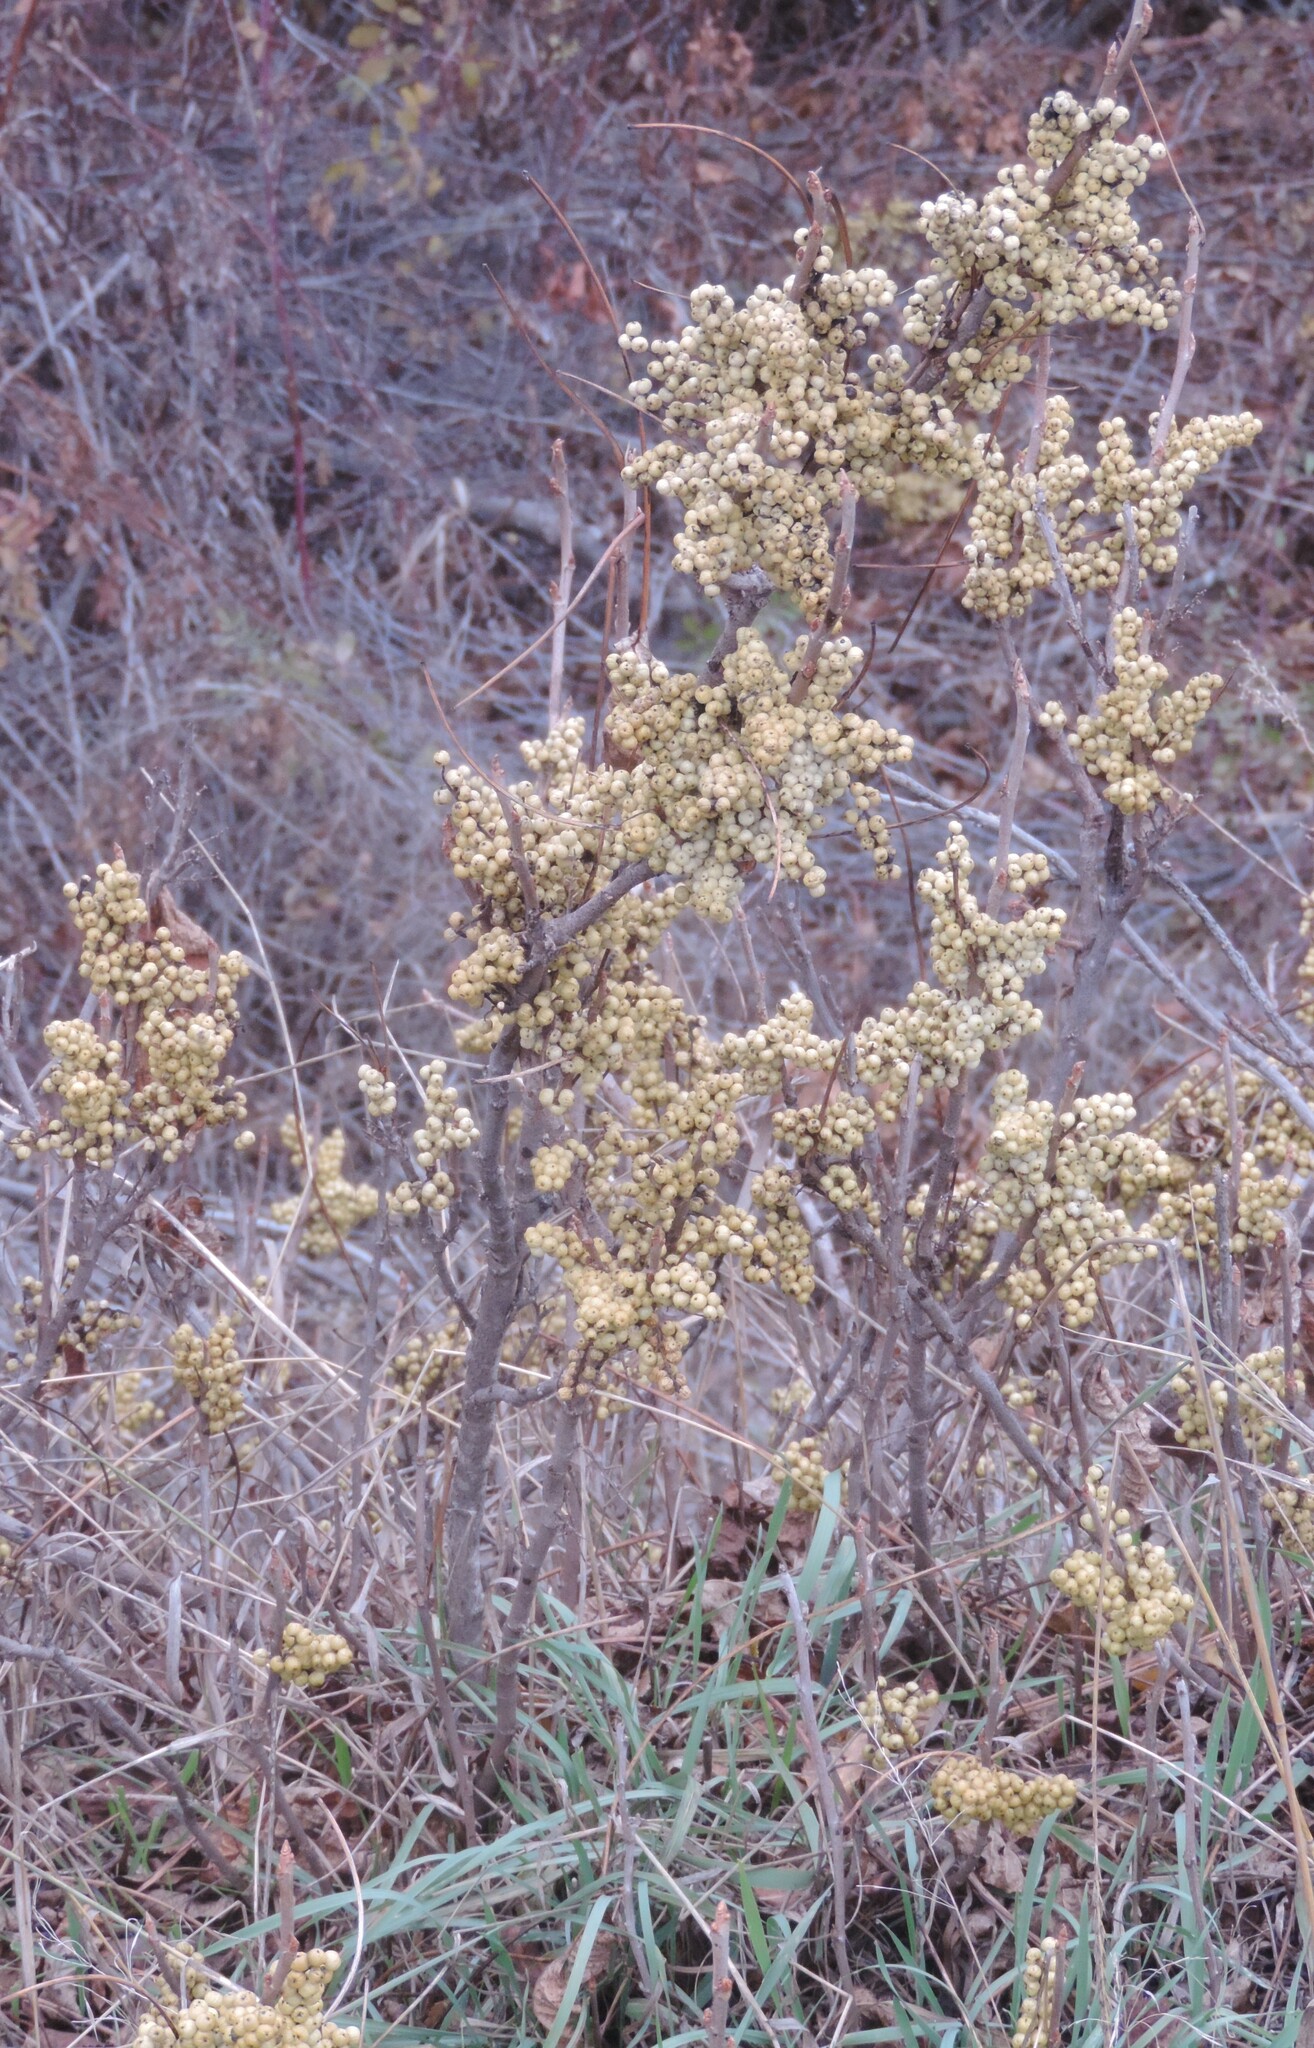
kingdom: Plantae
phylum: Tracheophyta
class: Magnoliopsida
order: Sapindales
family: Anacardiaceae
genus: Toxicodendron
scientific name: Toxicodendron rydbergii
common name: Rydberg's poison-ivy
